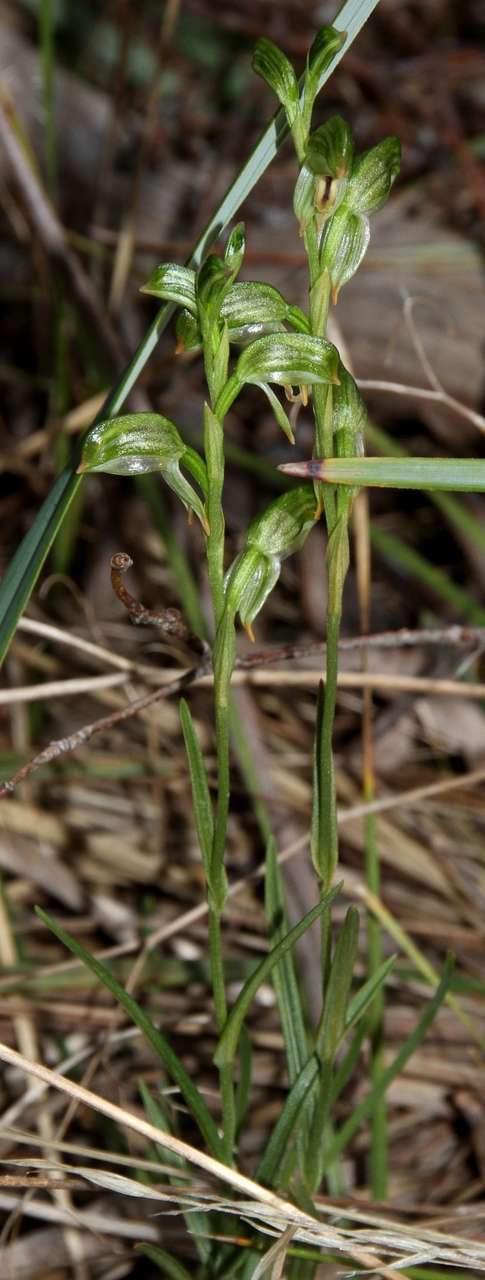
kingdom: Plantae
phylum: Tracheophyta
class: Liliopsida
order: Asparagales
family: Orchidaceae
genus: Pterostylis
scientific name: Pterostylis melagramma
